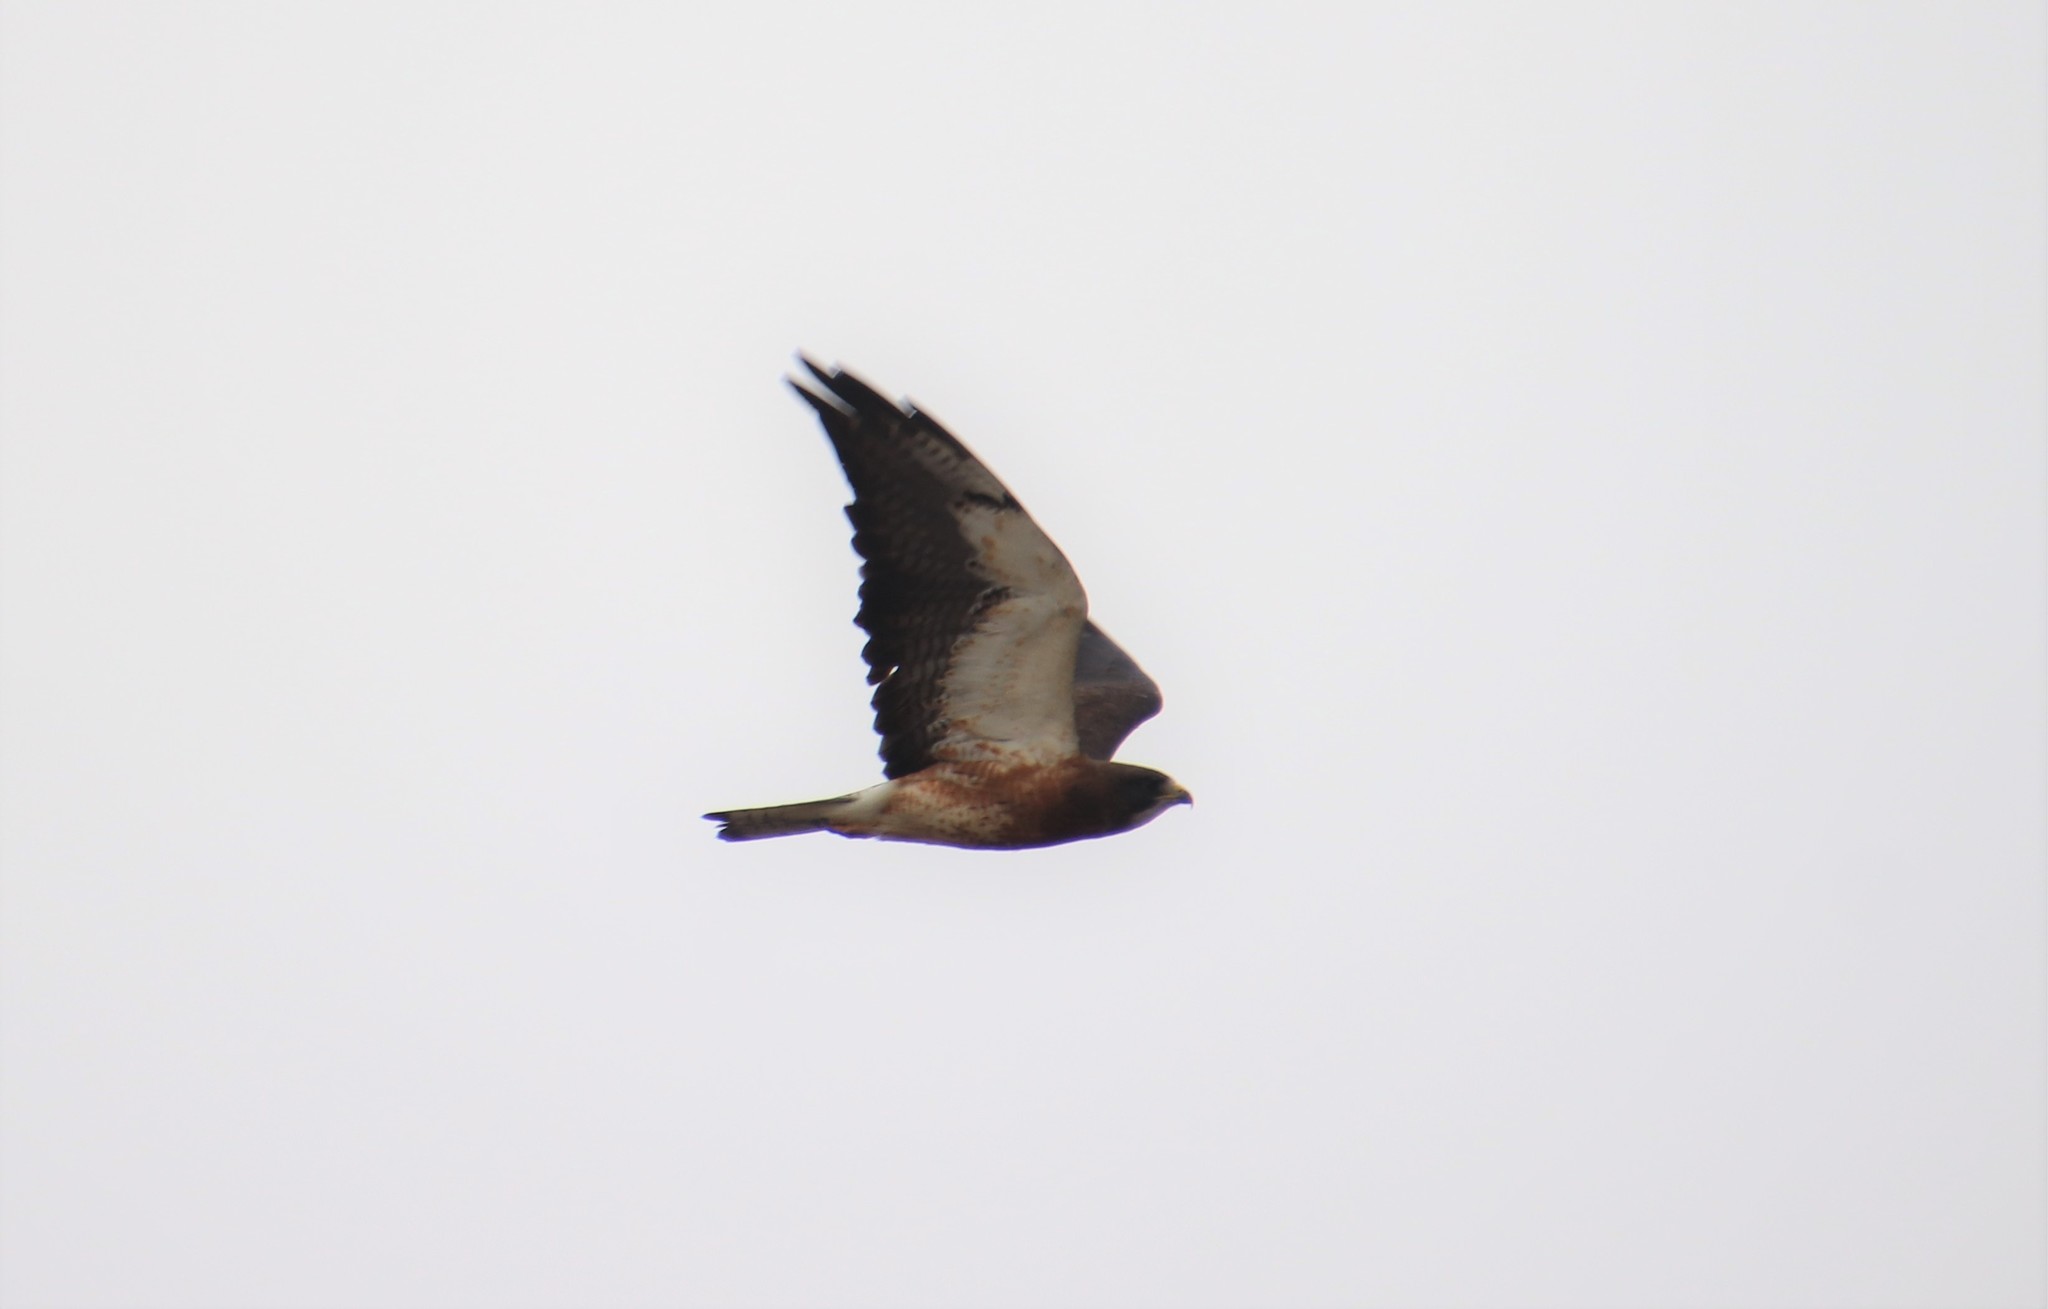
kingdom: Animalia
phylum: Chordata
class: Aves
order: Accipitriformes
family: Accipitridae
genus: Buteo
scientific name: Buteo swainsoni
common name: Swainson's hawk
